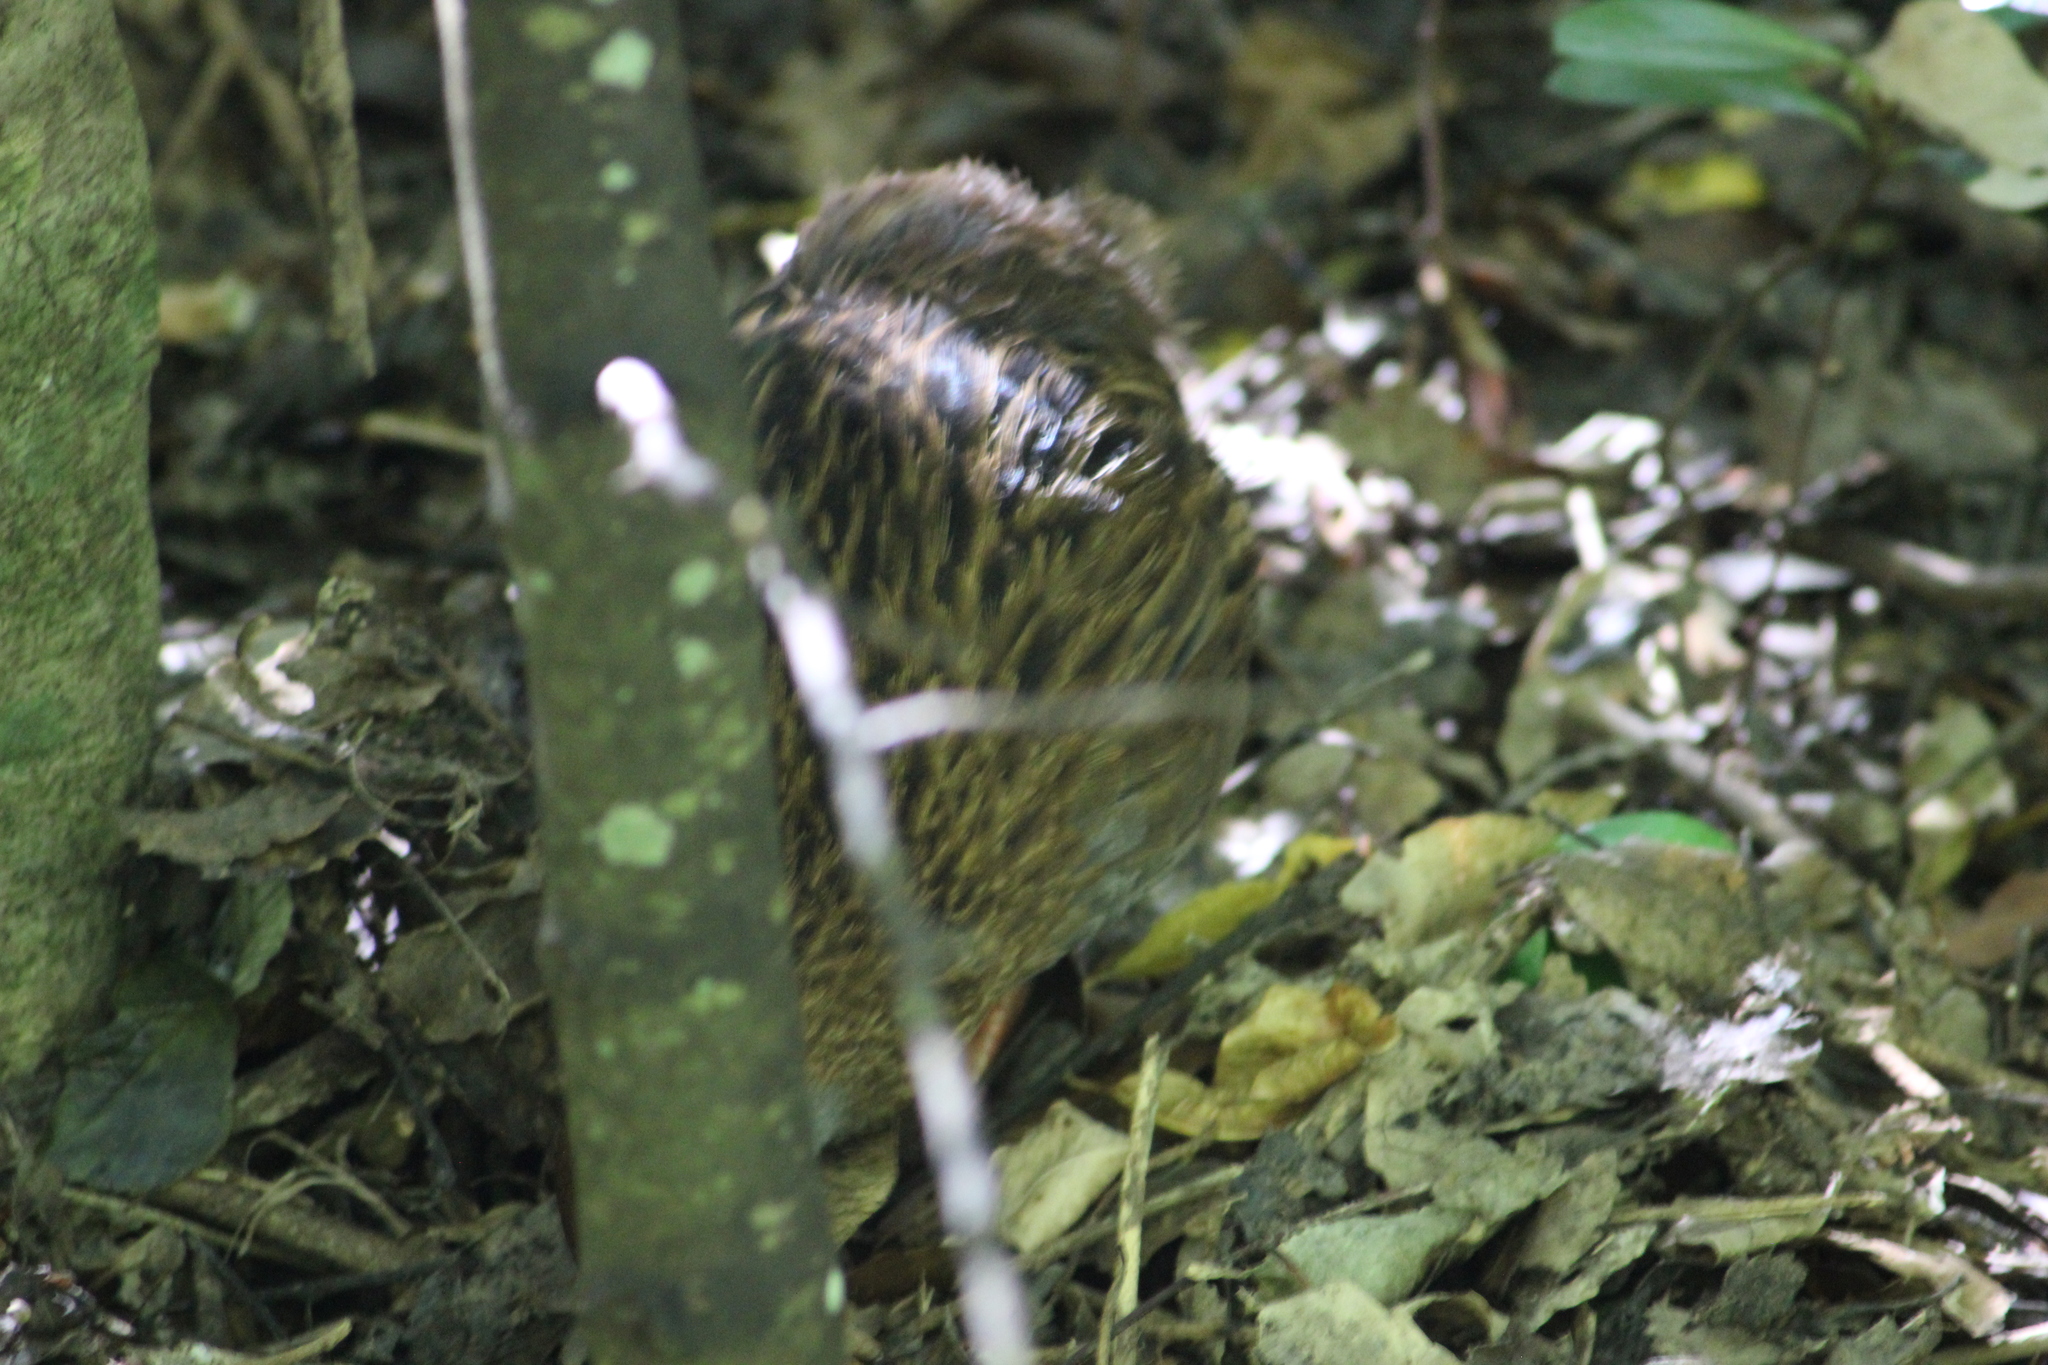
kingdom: Animalia
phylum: Chordata
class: Aves
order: Gruiformes
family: Rallidae
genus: Gallirallus
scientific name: Gallirallus
